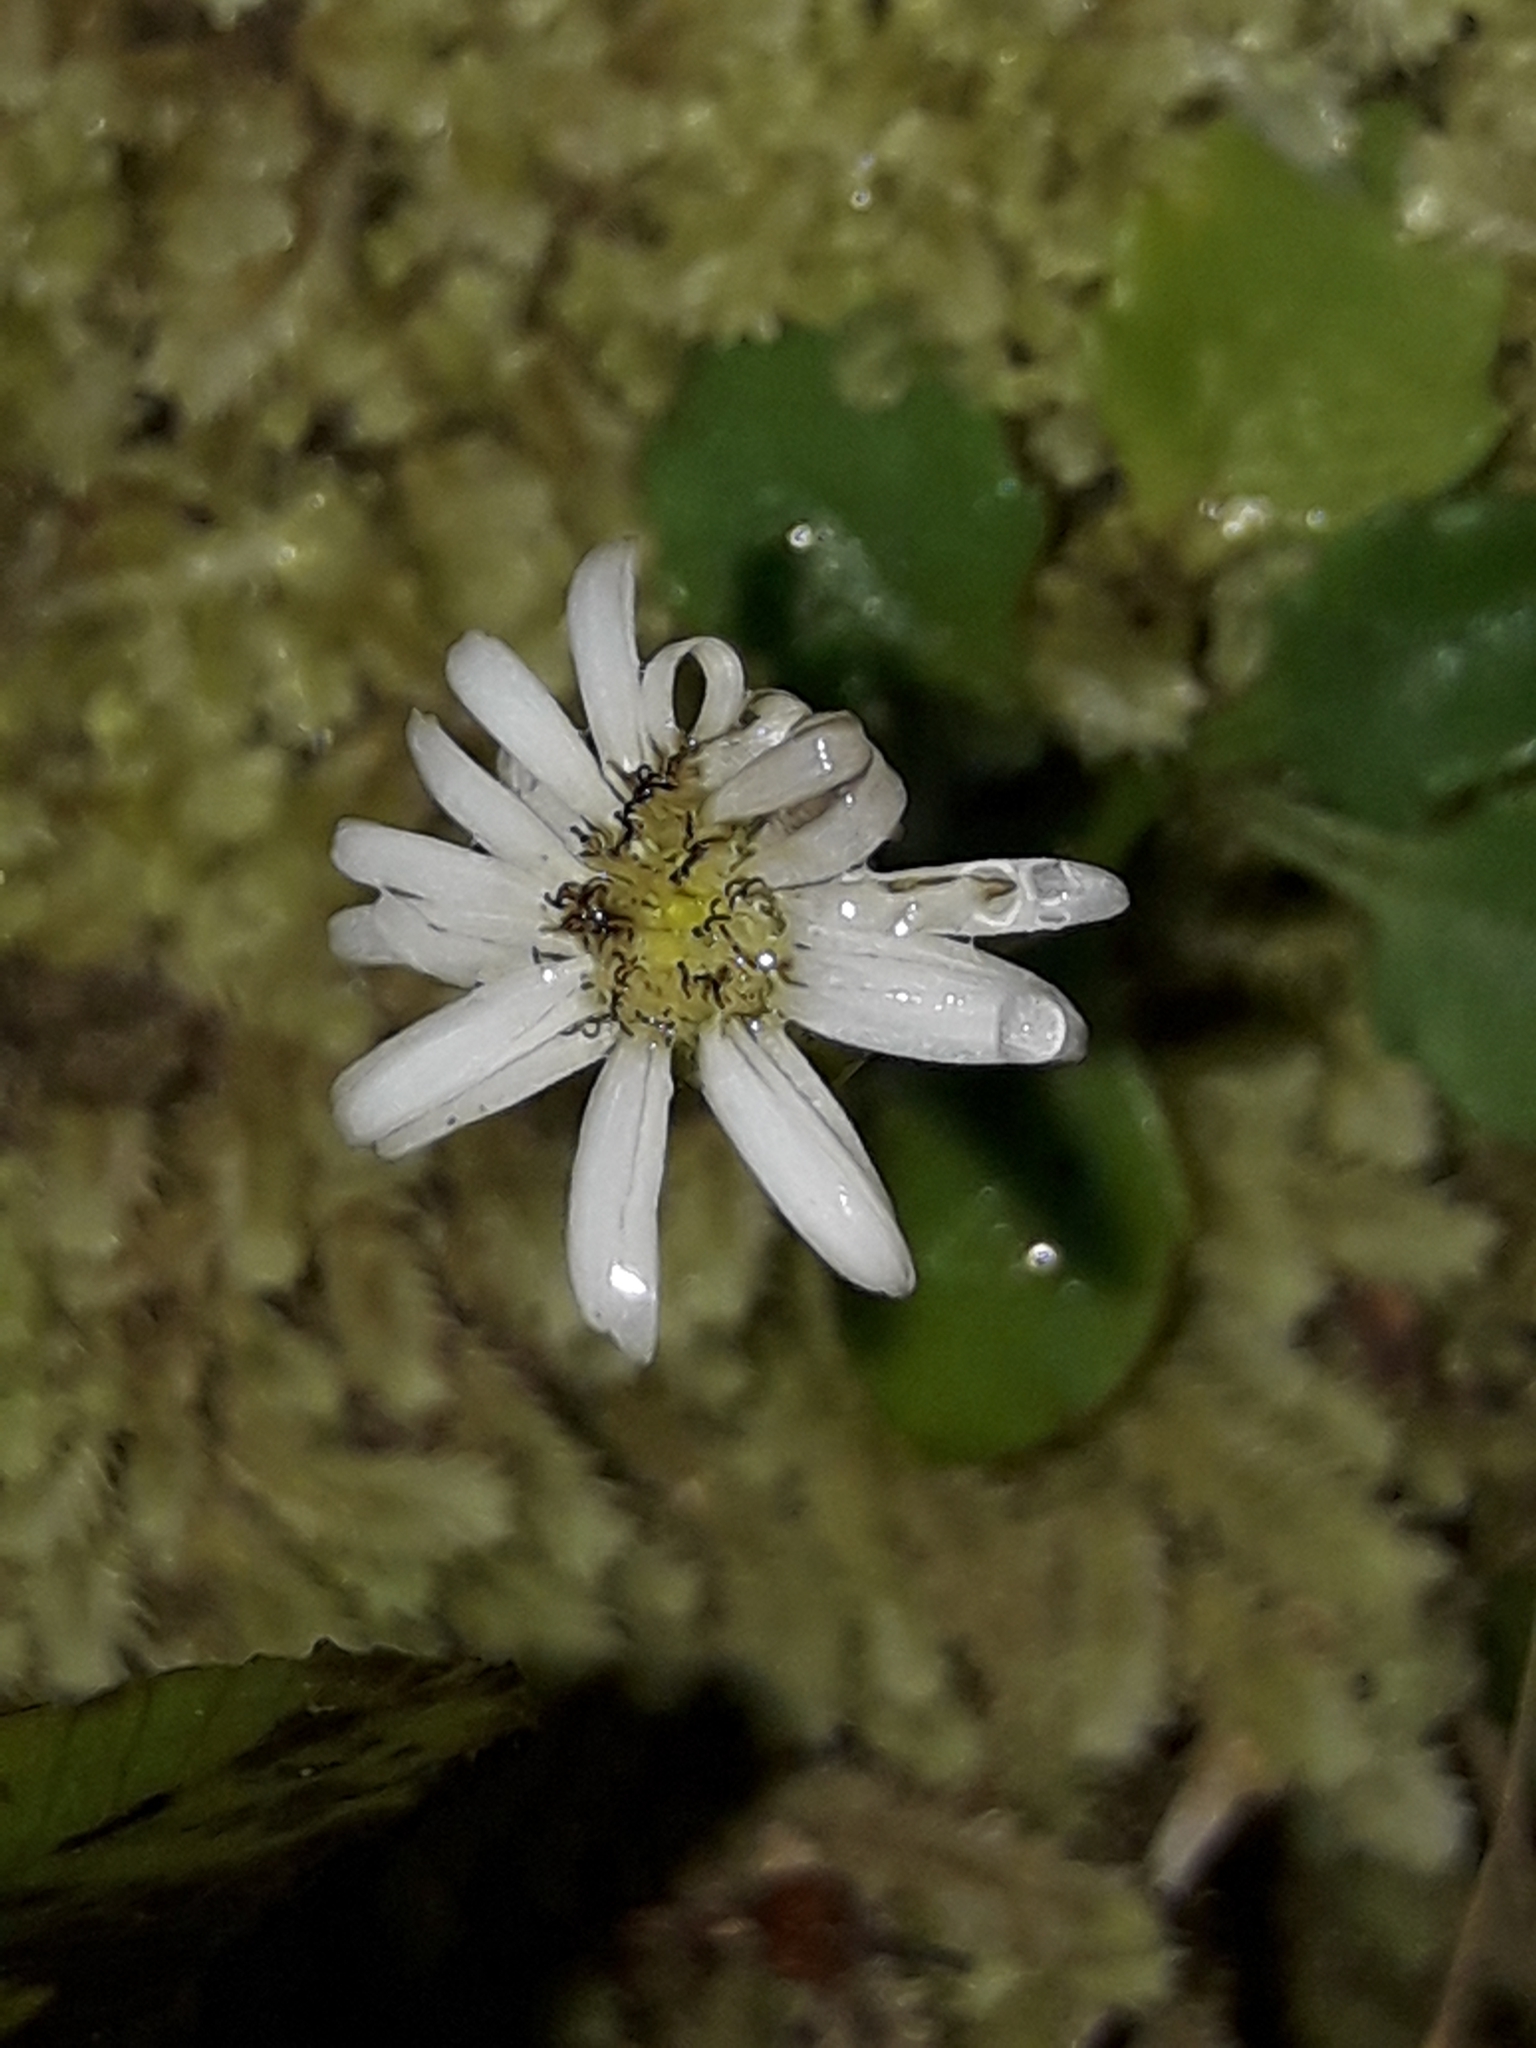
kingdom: Plantae
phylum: Tracheophyta
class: Magnoliopsida
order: Asterales
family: Asteraceae
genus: Lagenophora
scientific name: Lagenophora pumila
